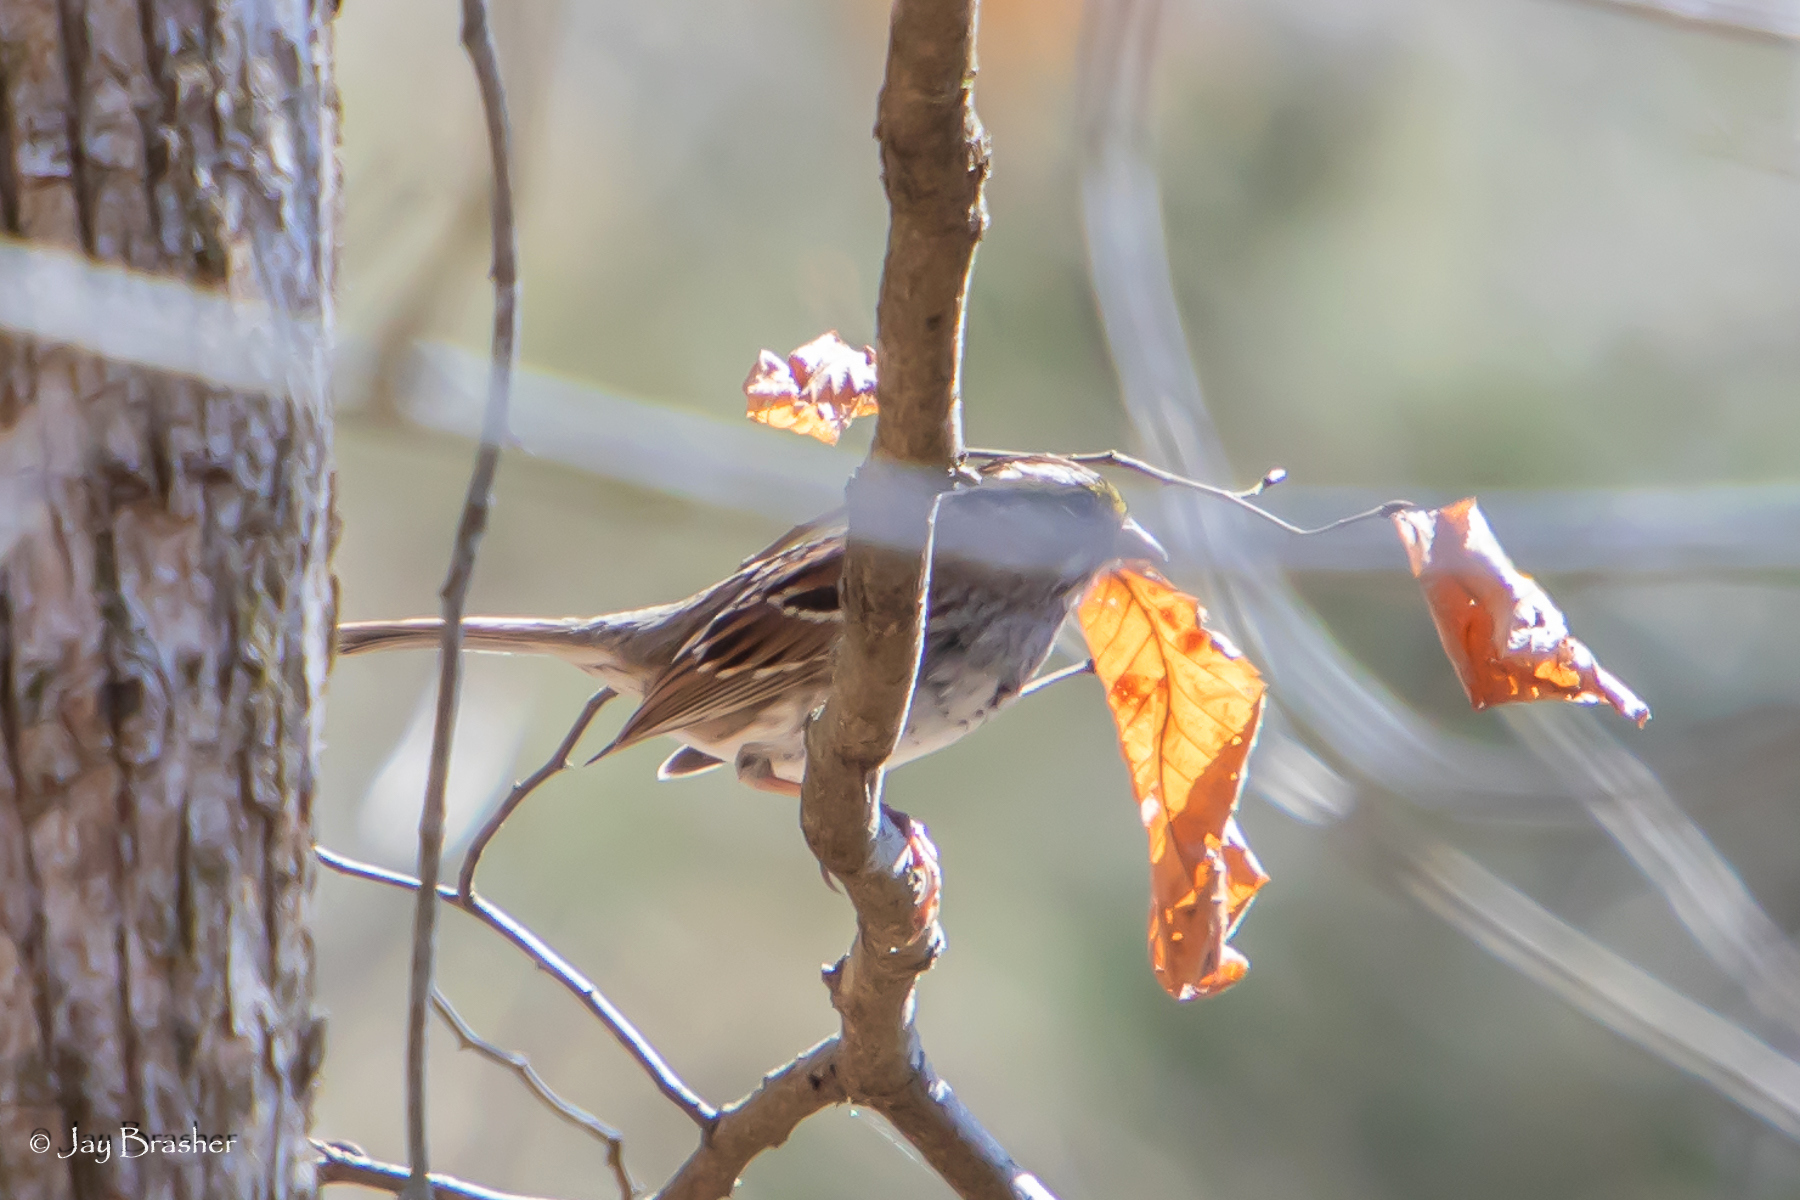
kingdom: Animalia
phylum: Chordata
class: Aves
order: Passeriformes
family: Passerellidae
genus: Zonotrichia
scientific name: Zonotrichia albicollis
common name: White-throated sparrow
